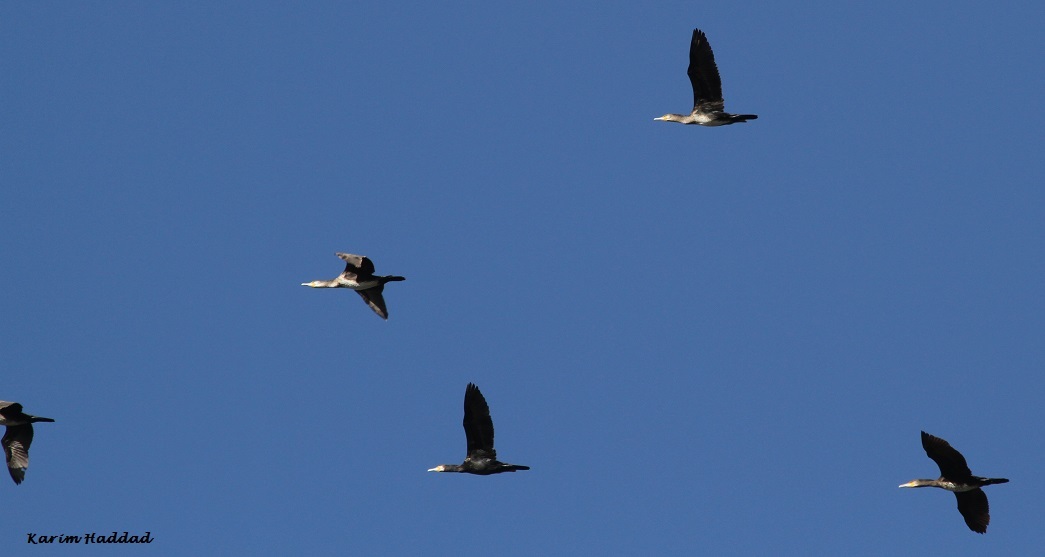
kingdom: Animalia
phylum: Chordata
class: Aves
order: Suliformes
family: Phalacrocoracidae
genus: Phalacrocorax
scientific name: Phalacrocorax carbo
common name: Great cormorant
